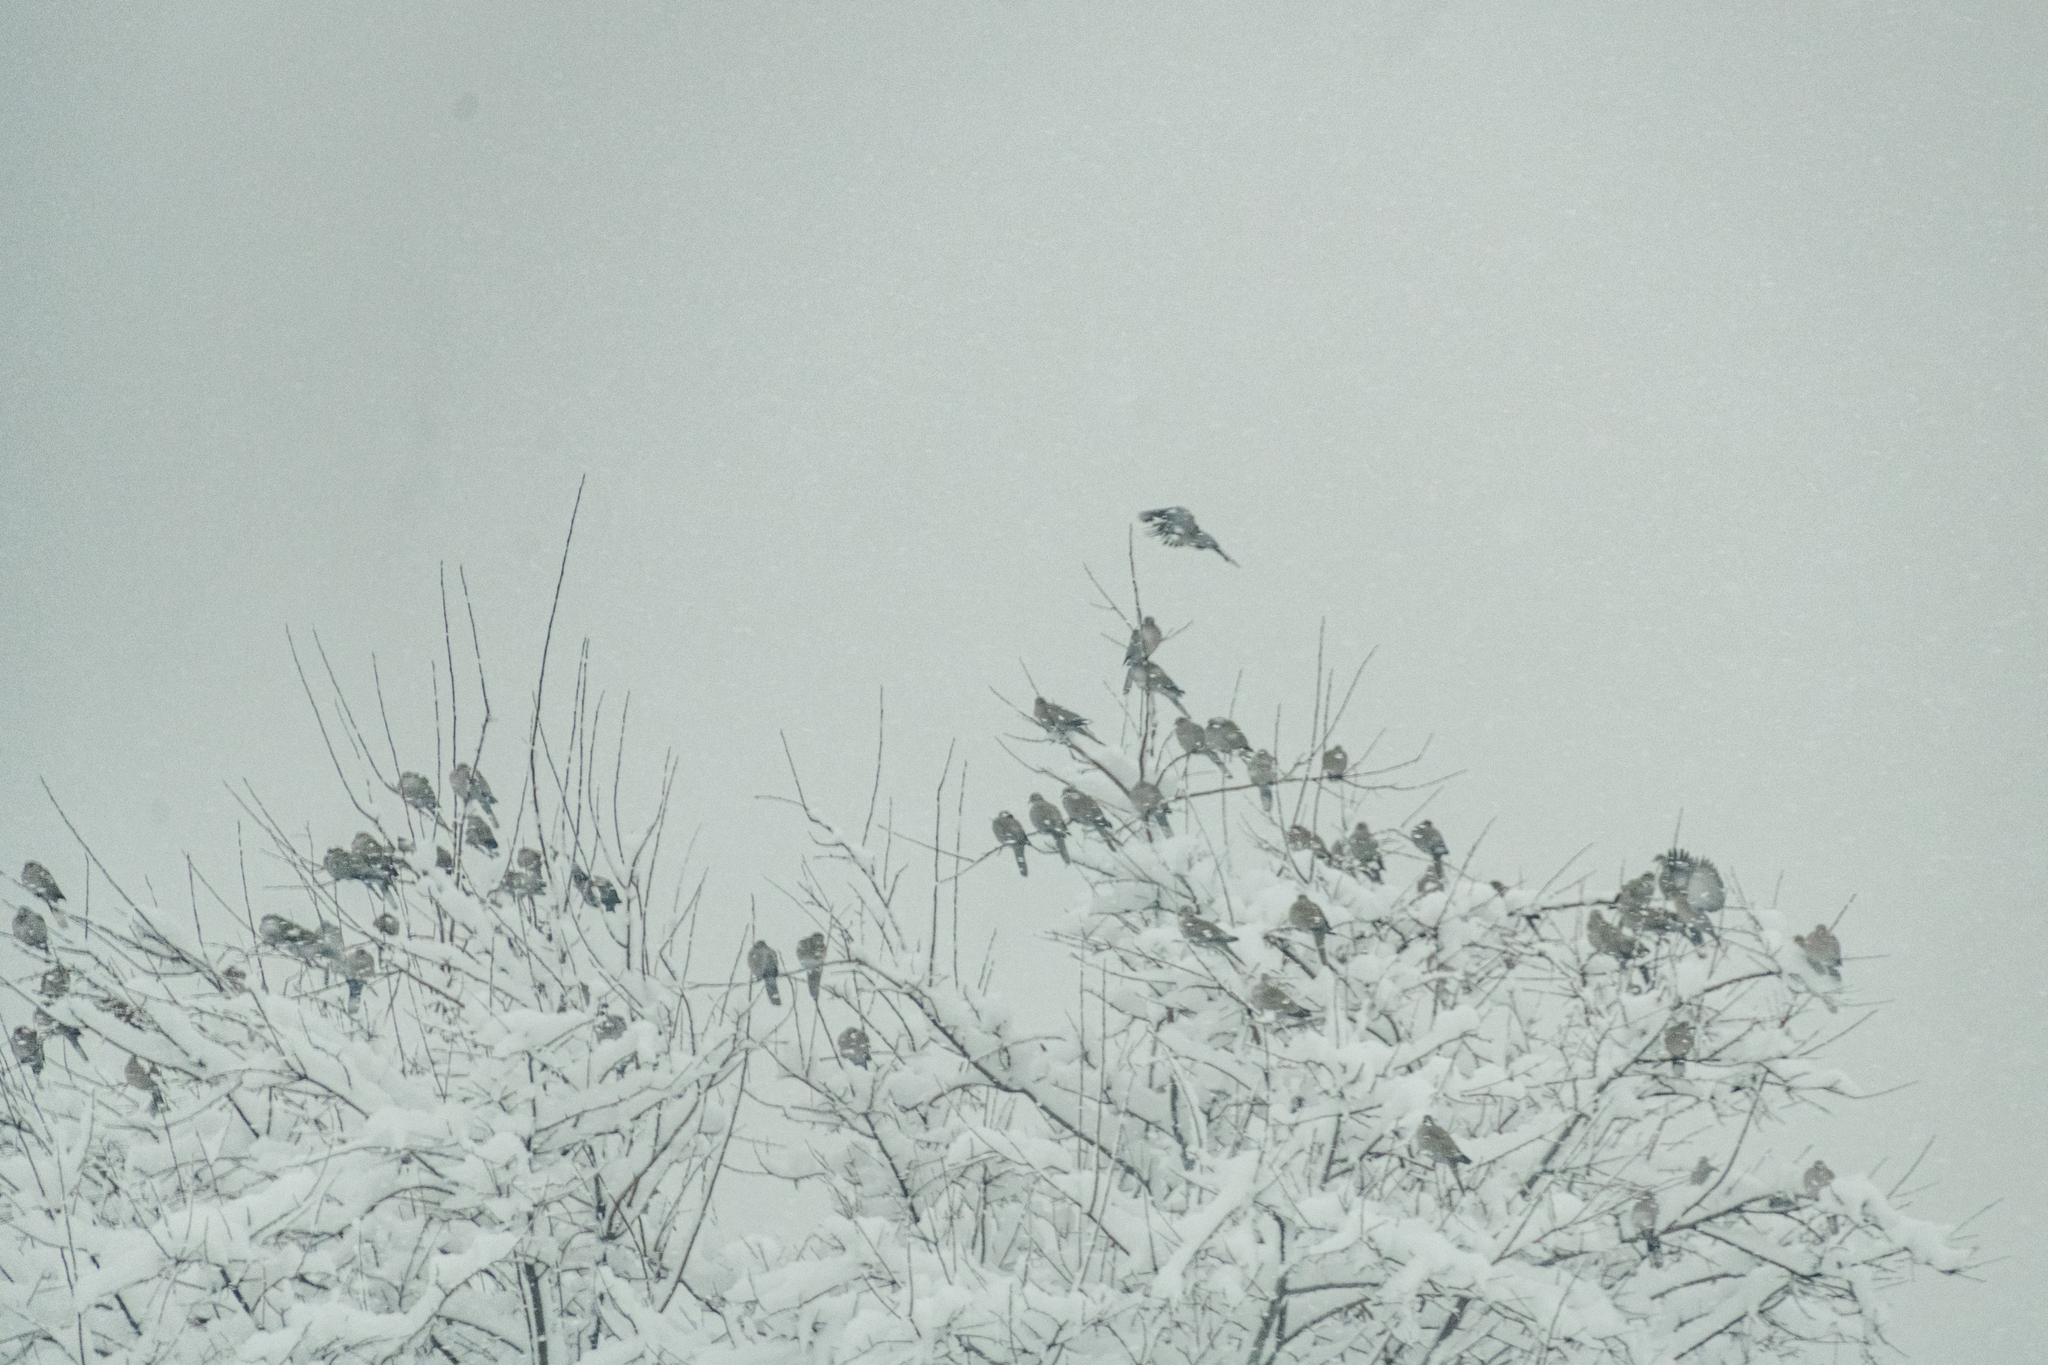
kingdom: Animalia
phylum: Chordata
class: Aves
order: Columbiformes
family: Columbidae
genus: Streptopelia
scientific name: Streptopelia decaocto
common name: Eurasian collared dove
